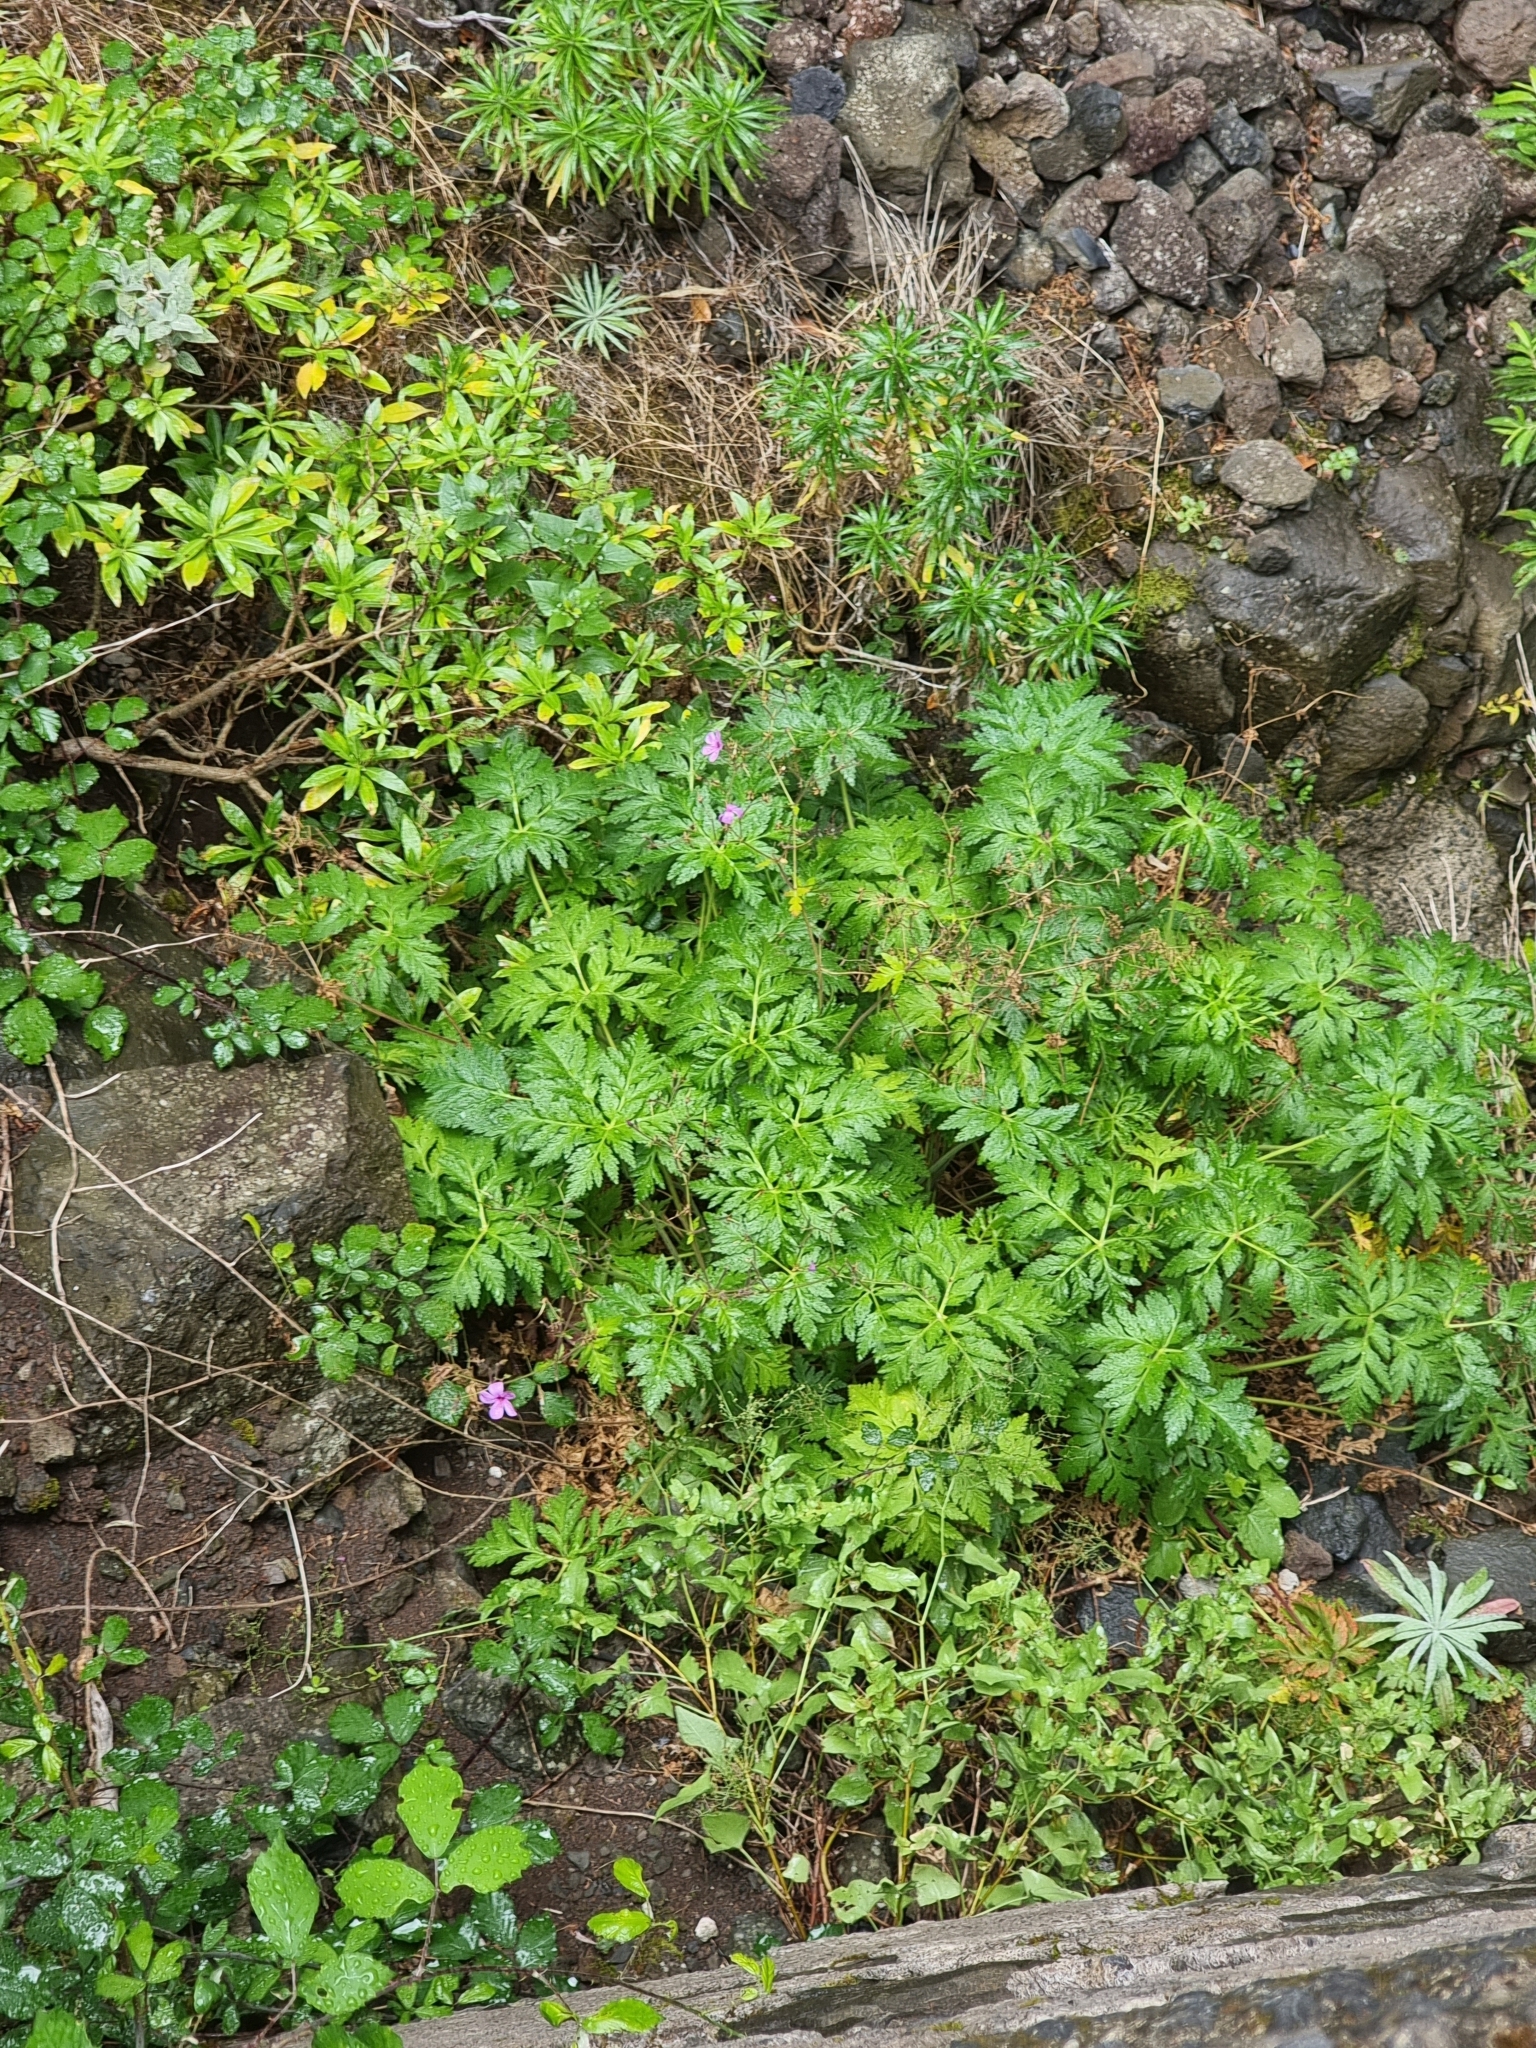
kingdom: Plantae
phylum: Tracheophyta
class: Magnoliopsida
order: Geraniales
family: Geraniaceae
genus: Geranium
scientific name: Geranium palmatum
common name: Canary island geranium
